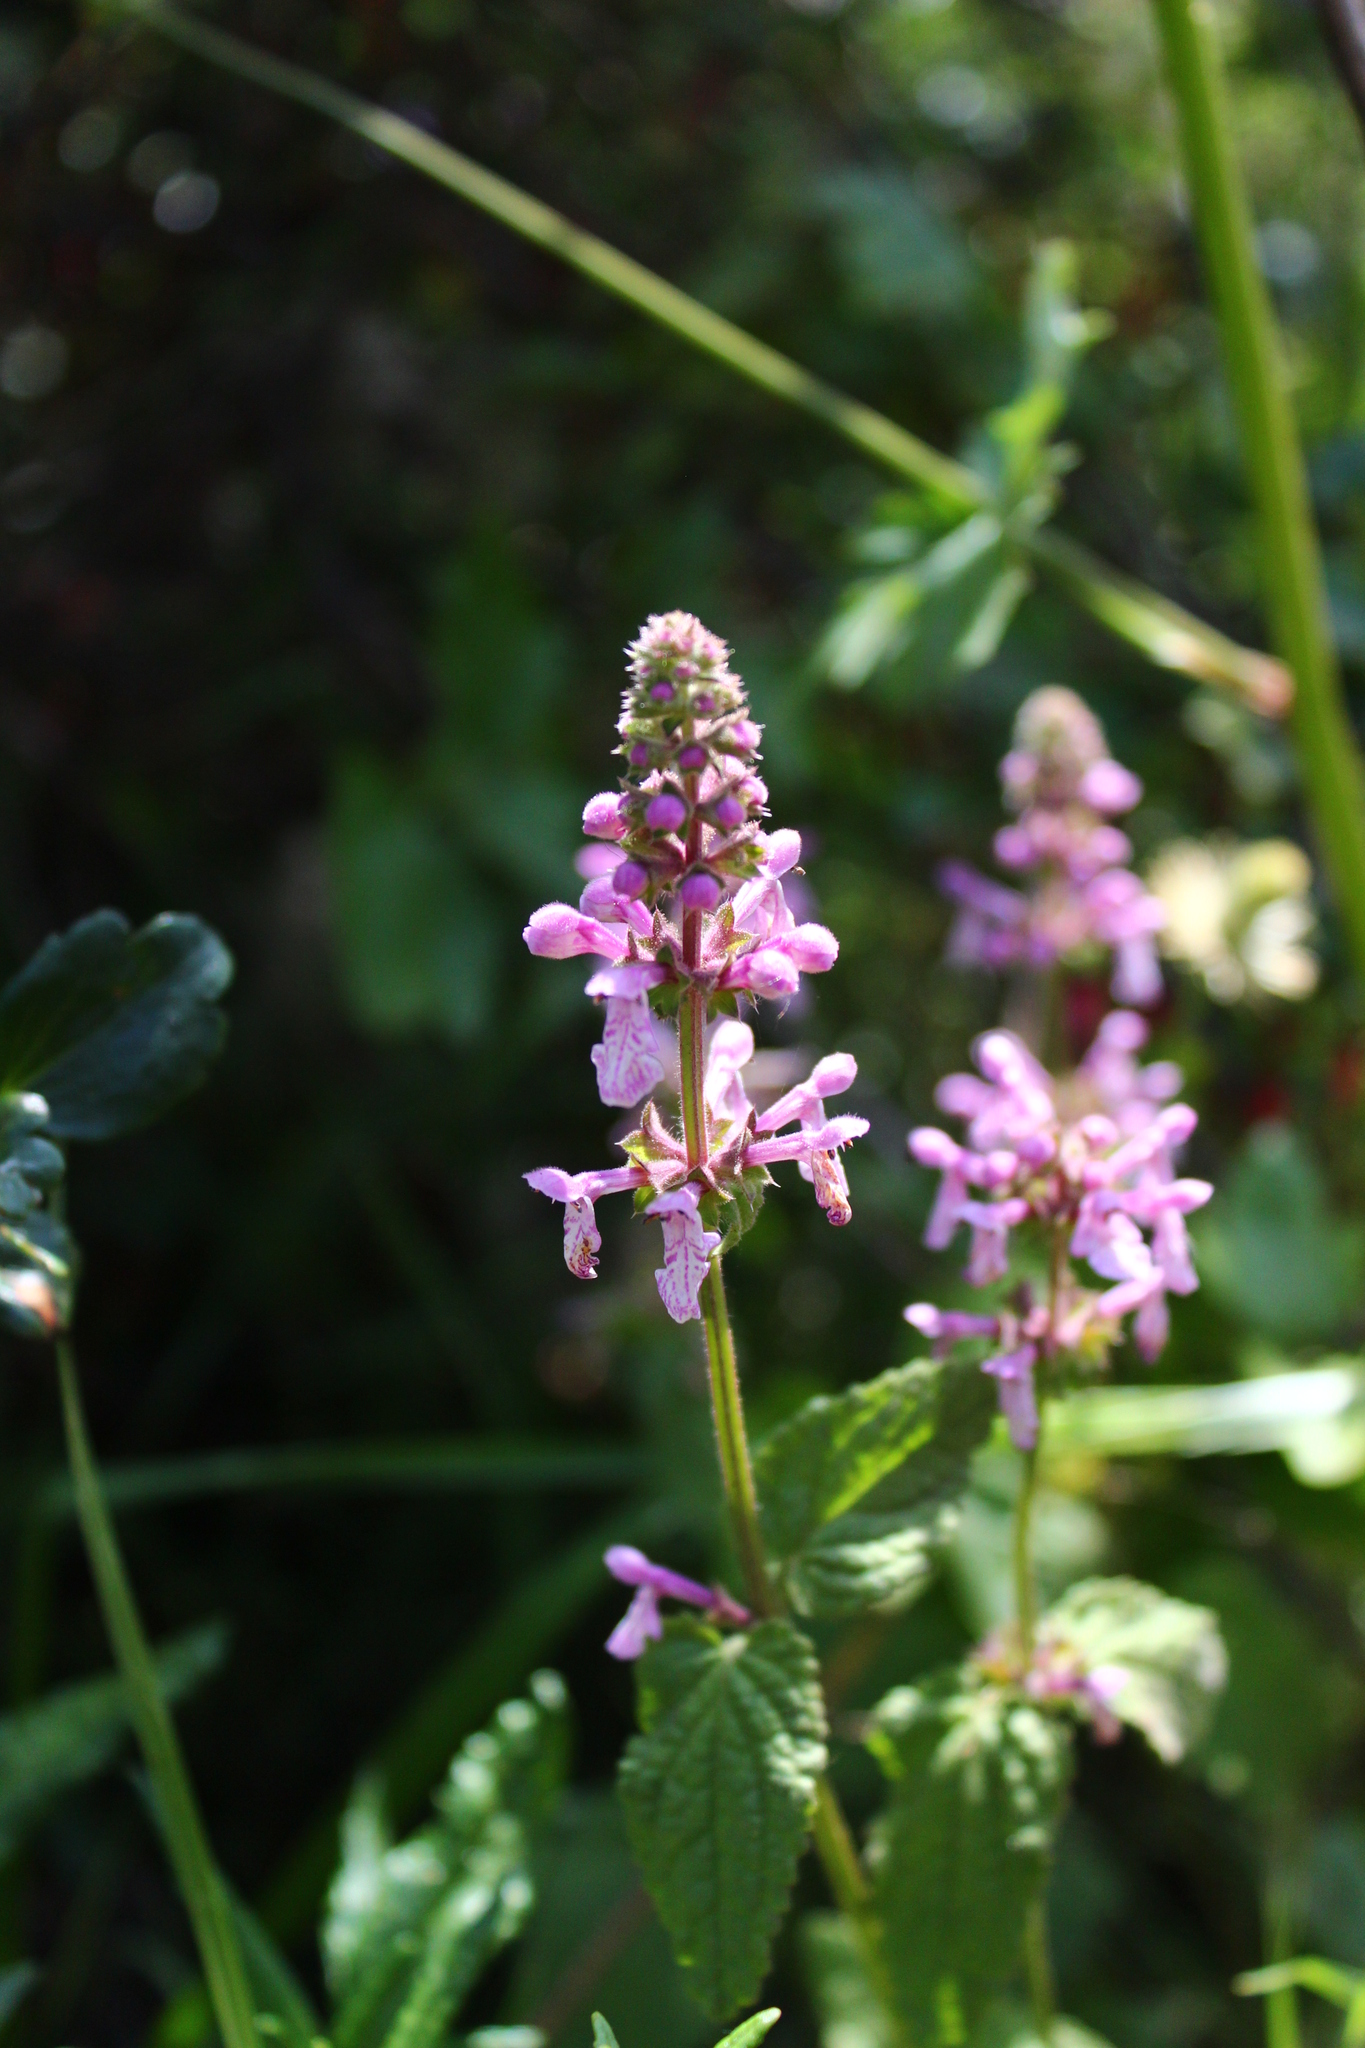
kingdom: Plantae
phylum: Tracheophyta
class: Magnoliopsida
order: Lamiales
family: Lamiaceae
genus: Stachys
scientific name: Stachys bullata
